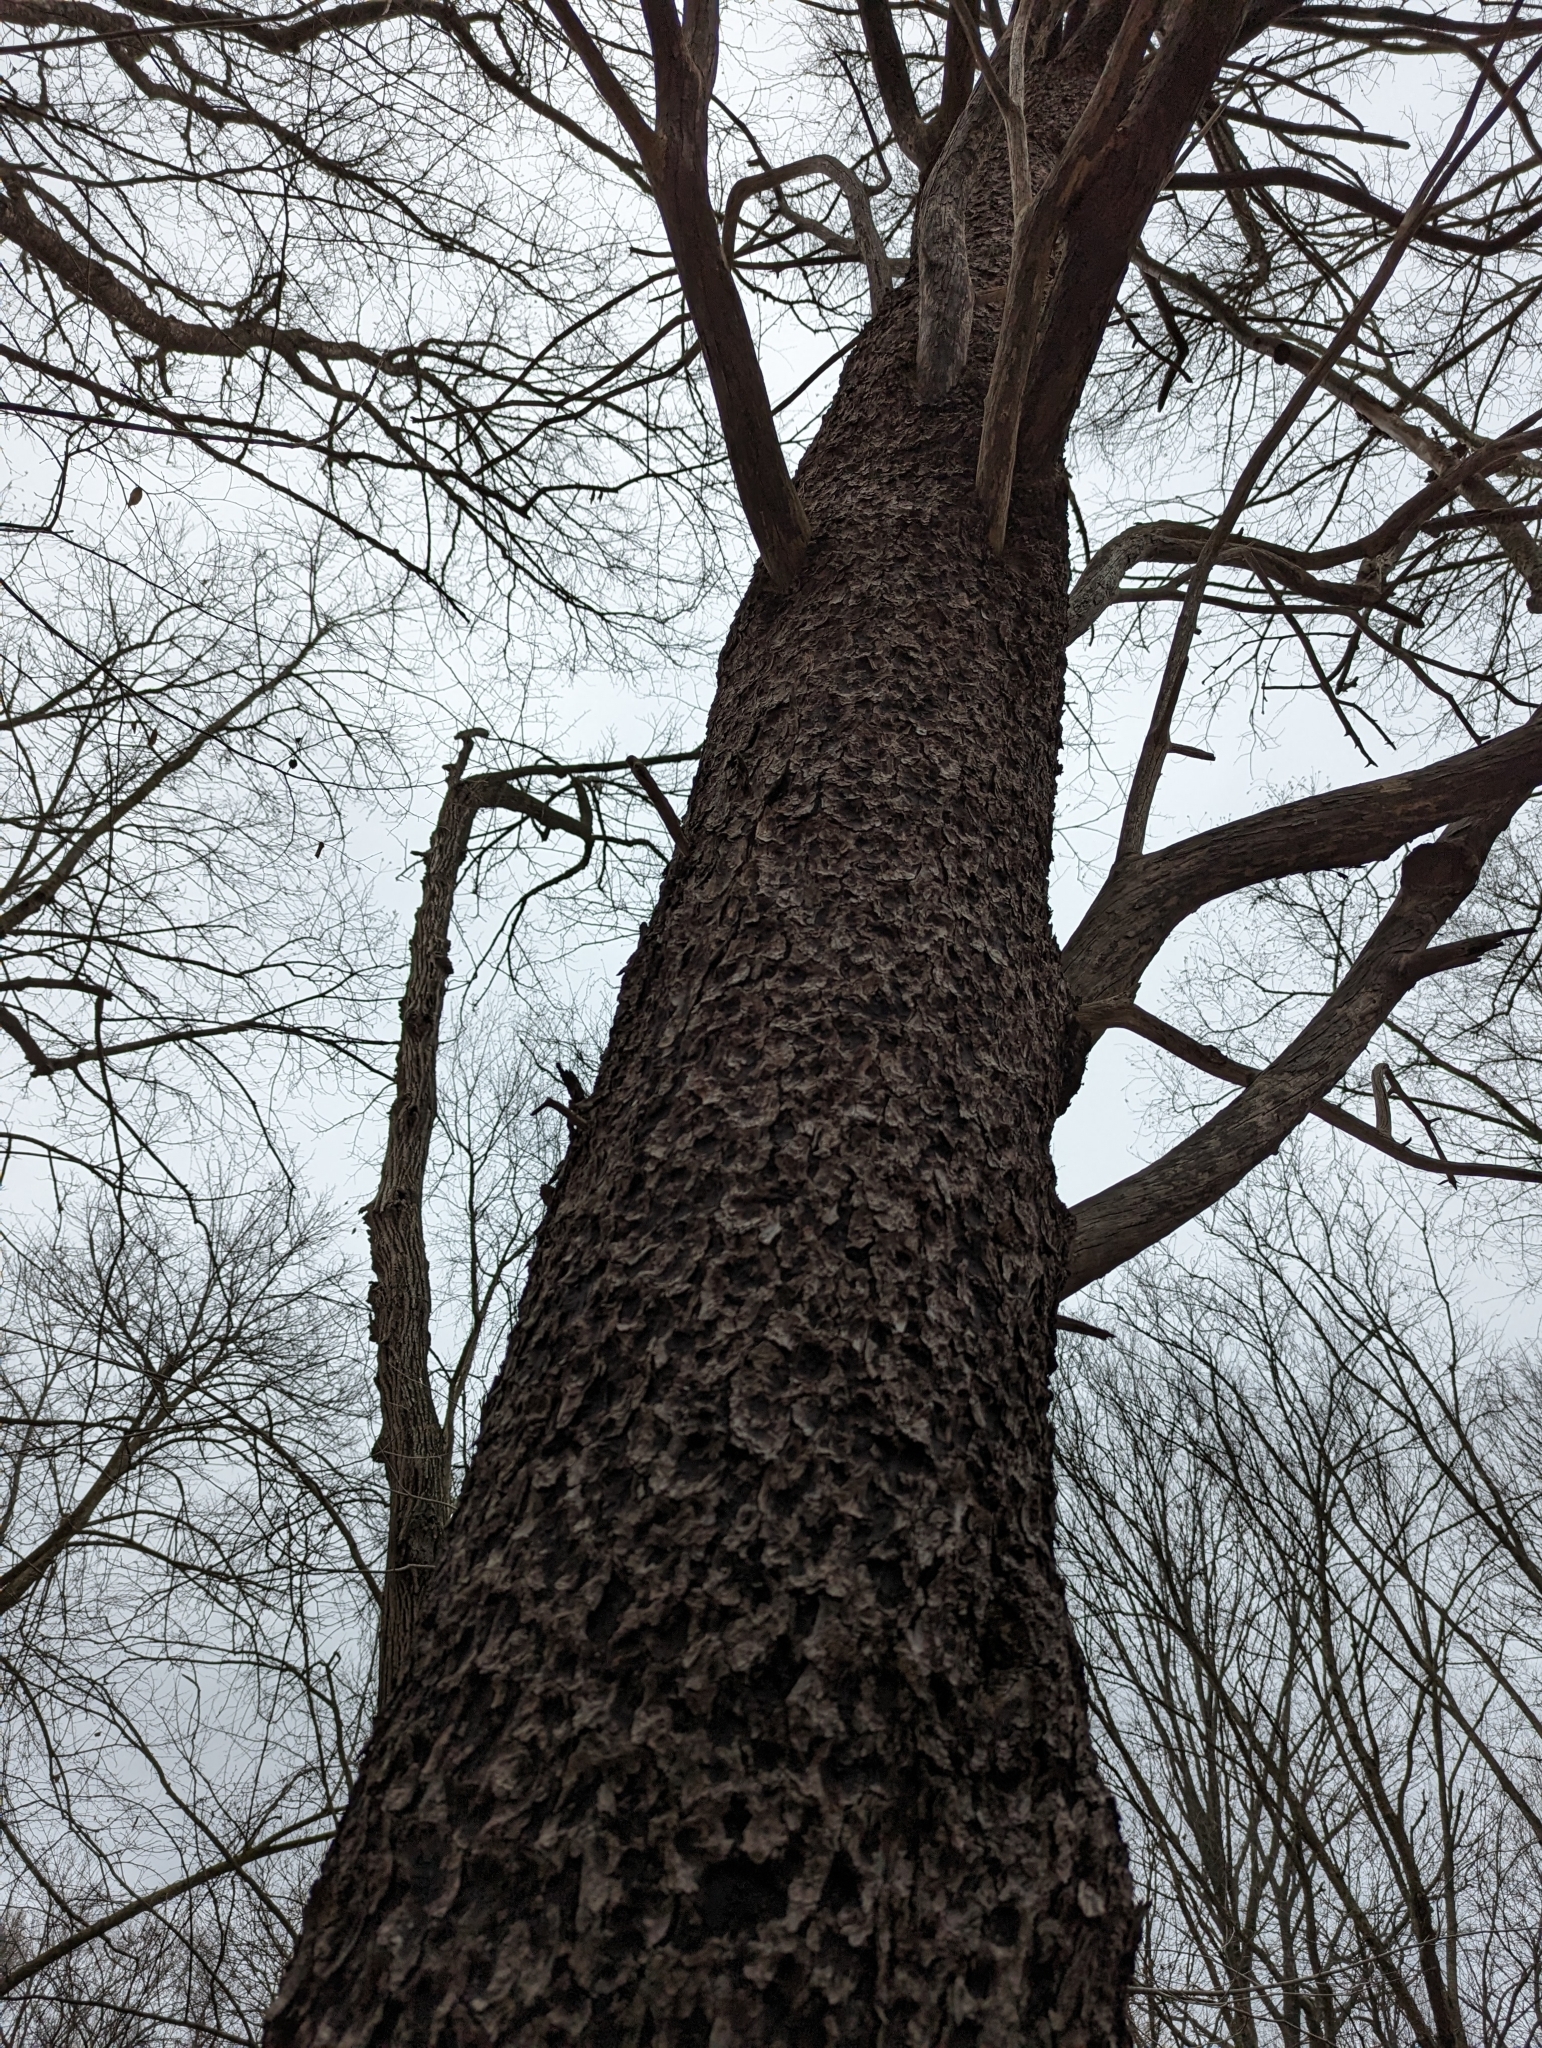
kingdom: Plantae
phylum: Tracheophyta
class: Magnoliopsida
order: Rosales
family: Rosaceae
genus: Prunus
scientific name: Prunus serotina
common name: Black cherry
